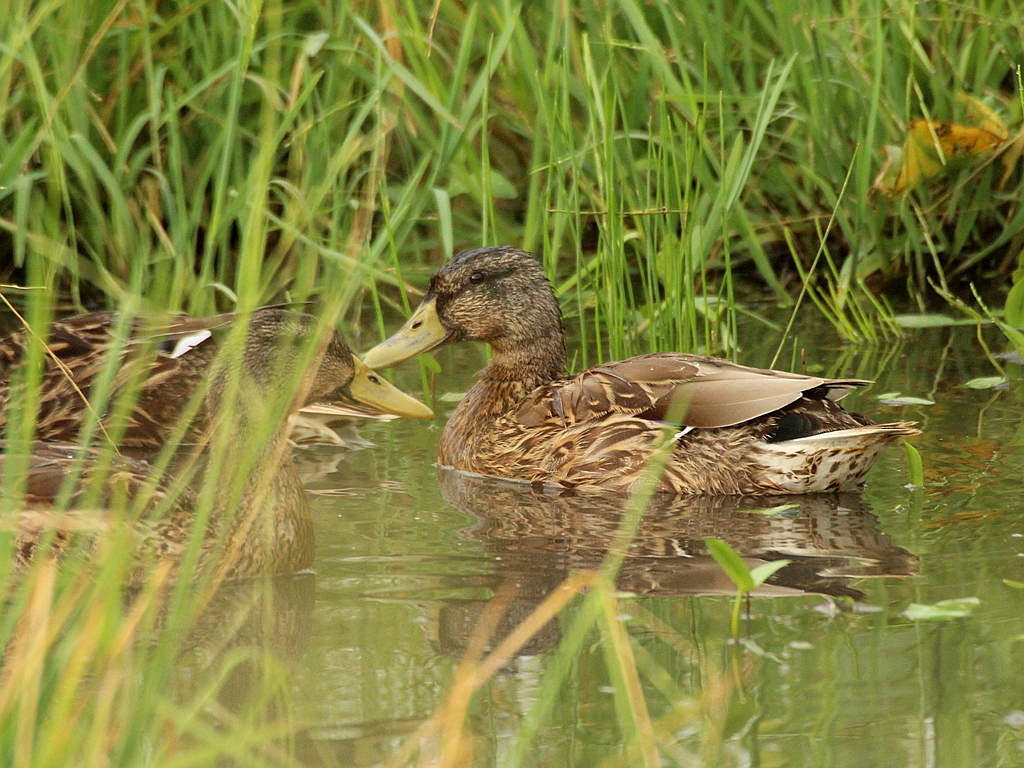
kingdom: Animalia
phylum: Chordata
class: Aves
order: Anseriformes
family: Anatidae
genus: Anas
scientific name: Anas platyrhynchos
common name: Mallard
